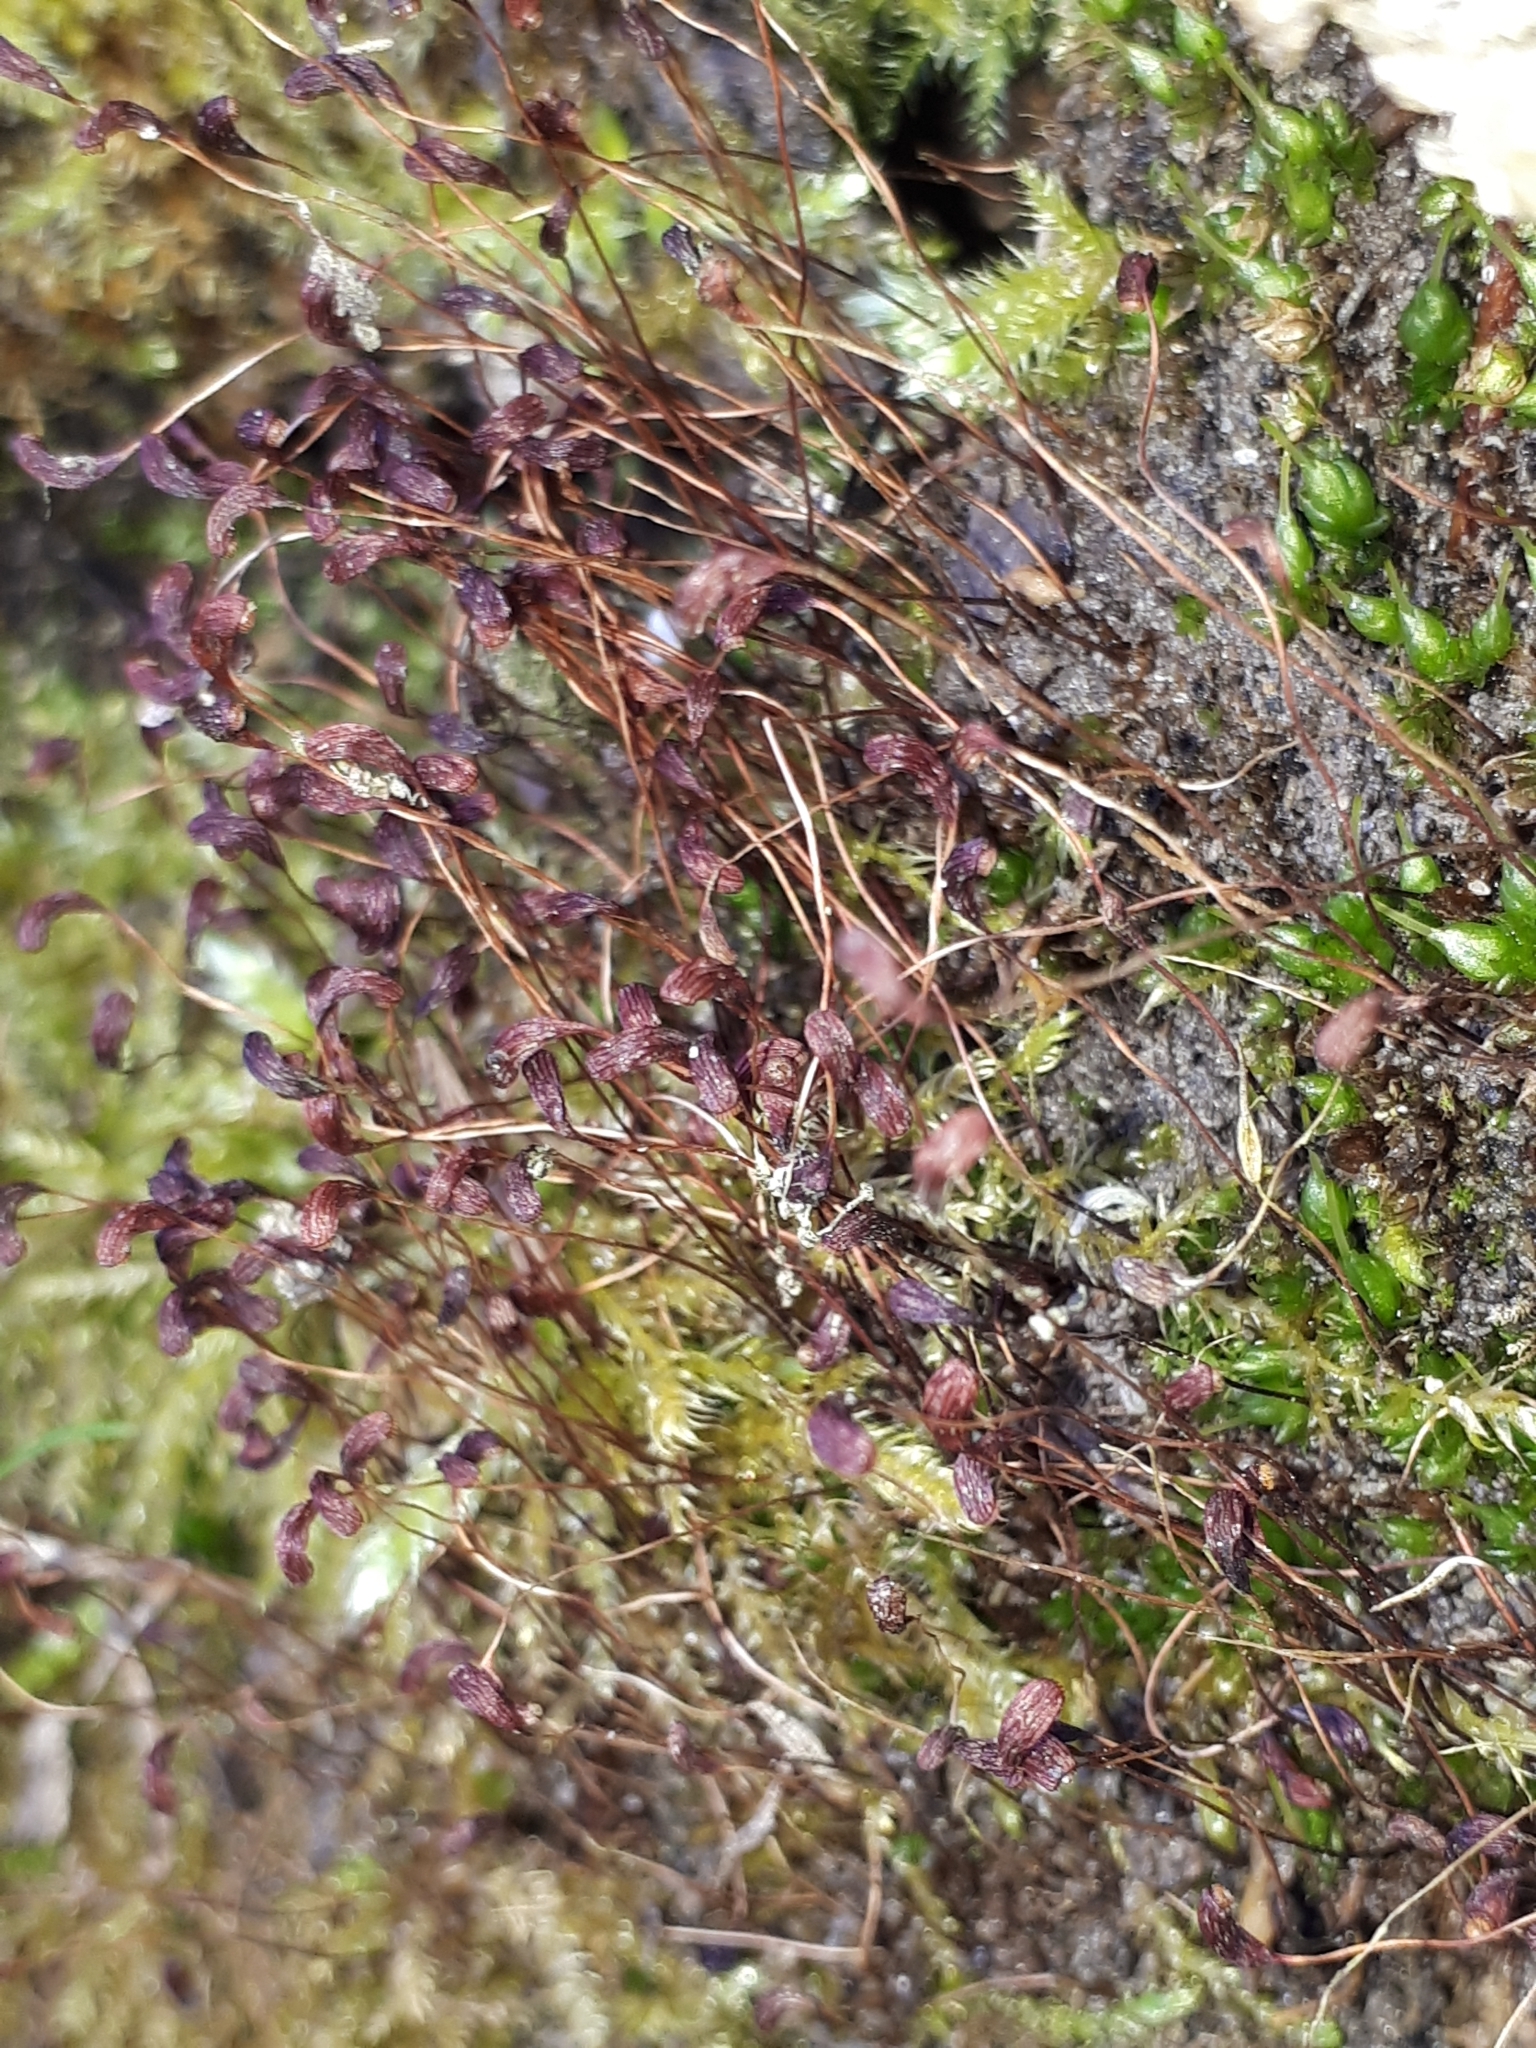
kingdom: Plantae
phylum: Bryophyta
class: Bryopsida
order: Funariales
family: Funariaceae
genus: Funaria
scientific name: Funaria hygrometrica
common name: Common cord moss
